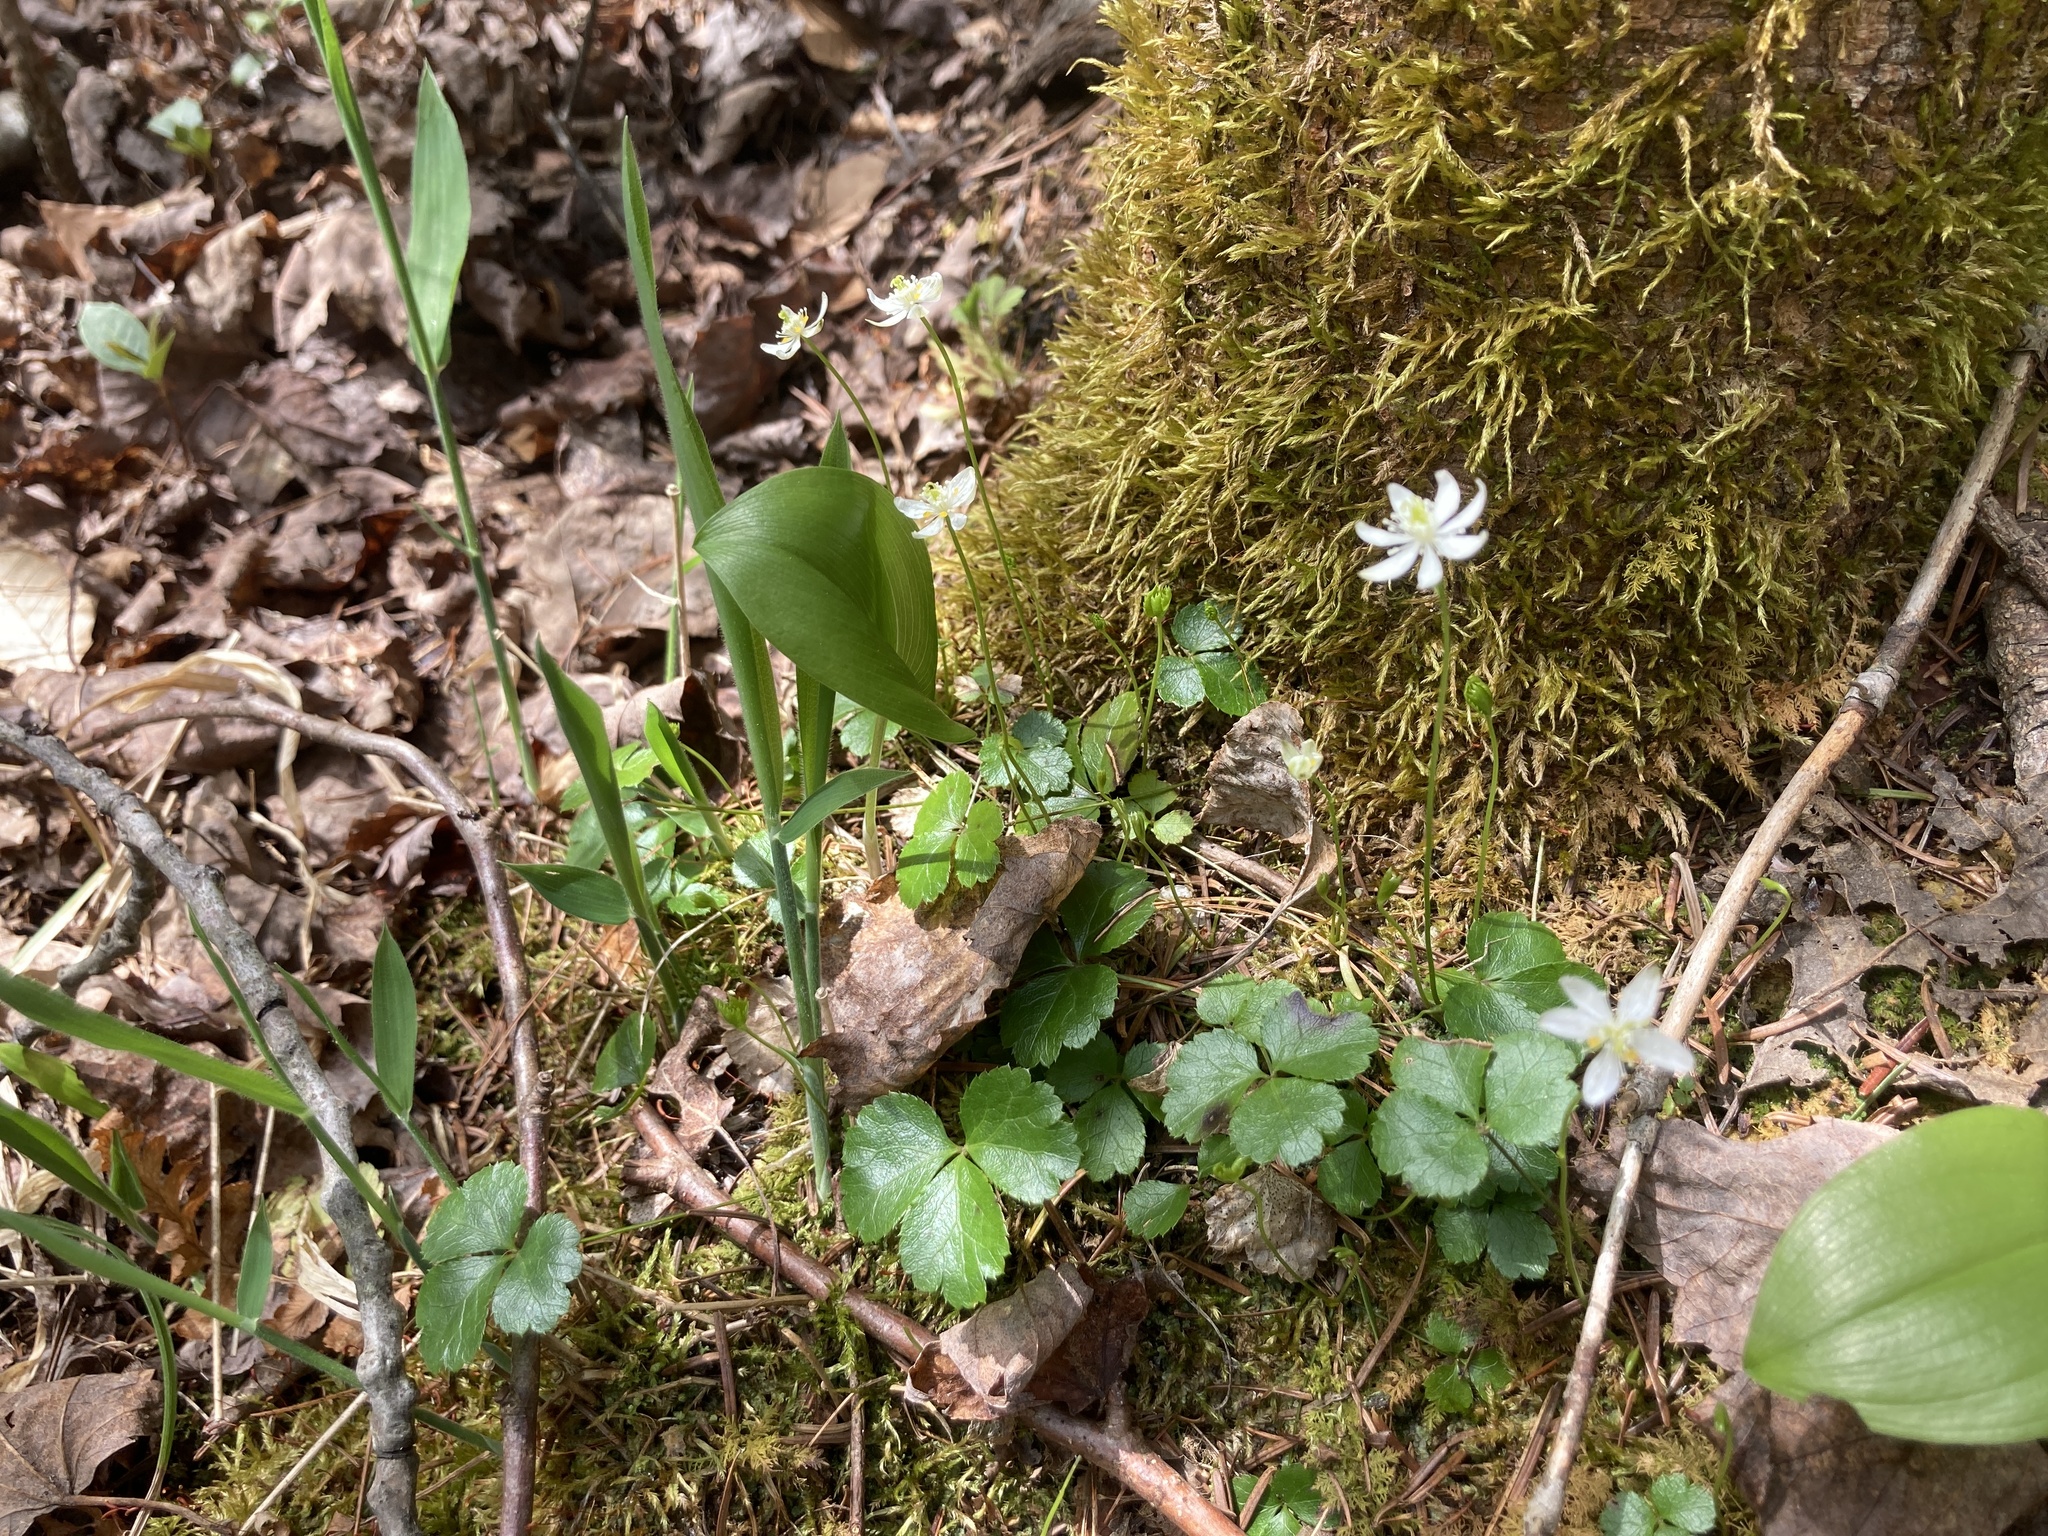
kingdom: Plantae
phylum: Tracheophyta
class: Magnoliopsida
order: Ranunculales
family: Ranunculaceae
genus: Coptis
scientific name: Coptis trifolia
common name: Canker-root
